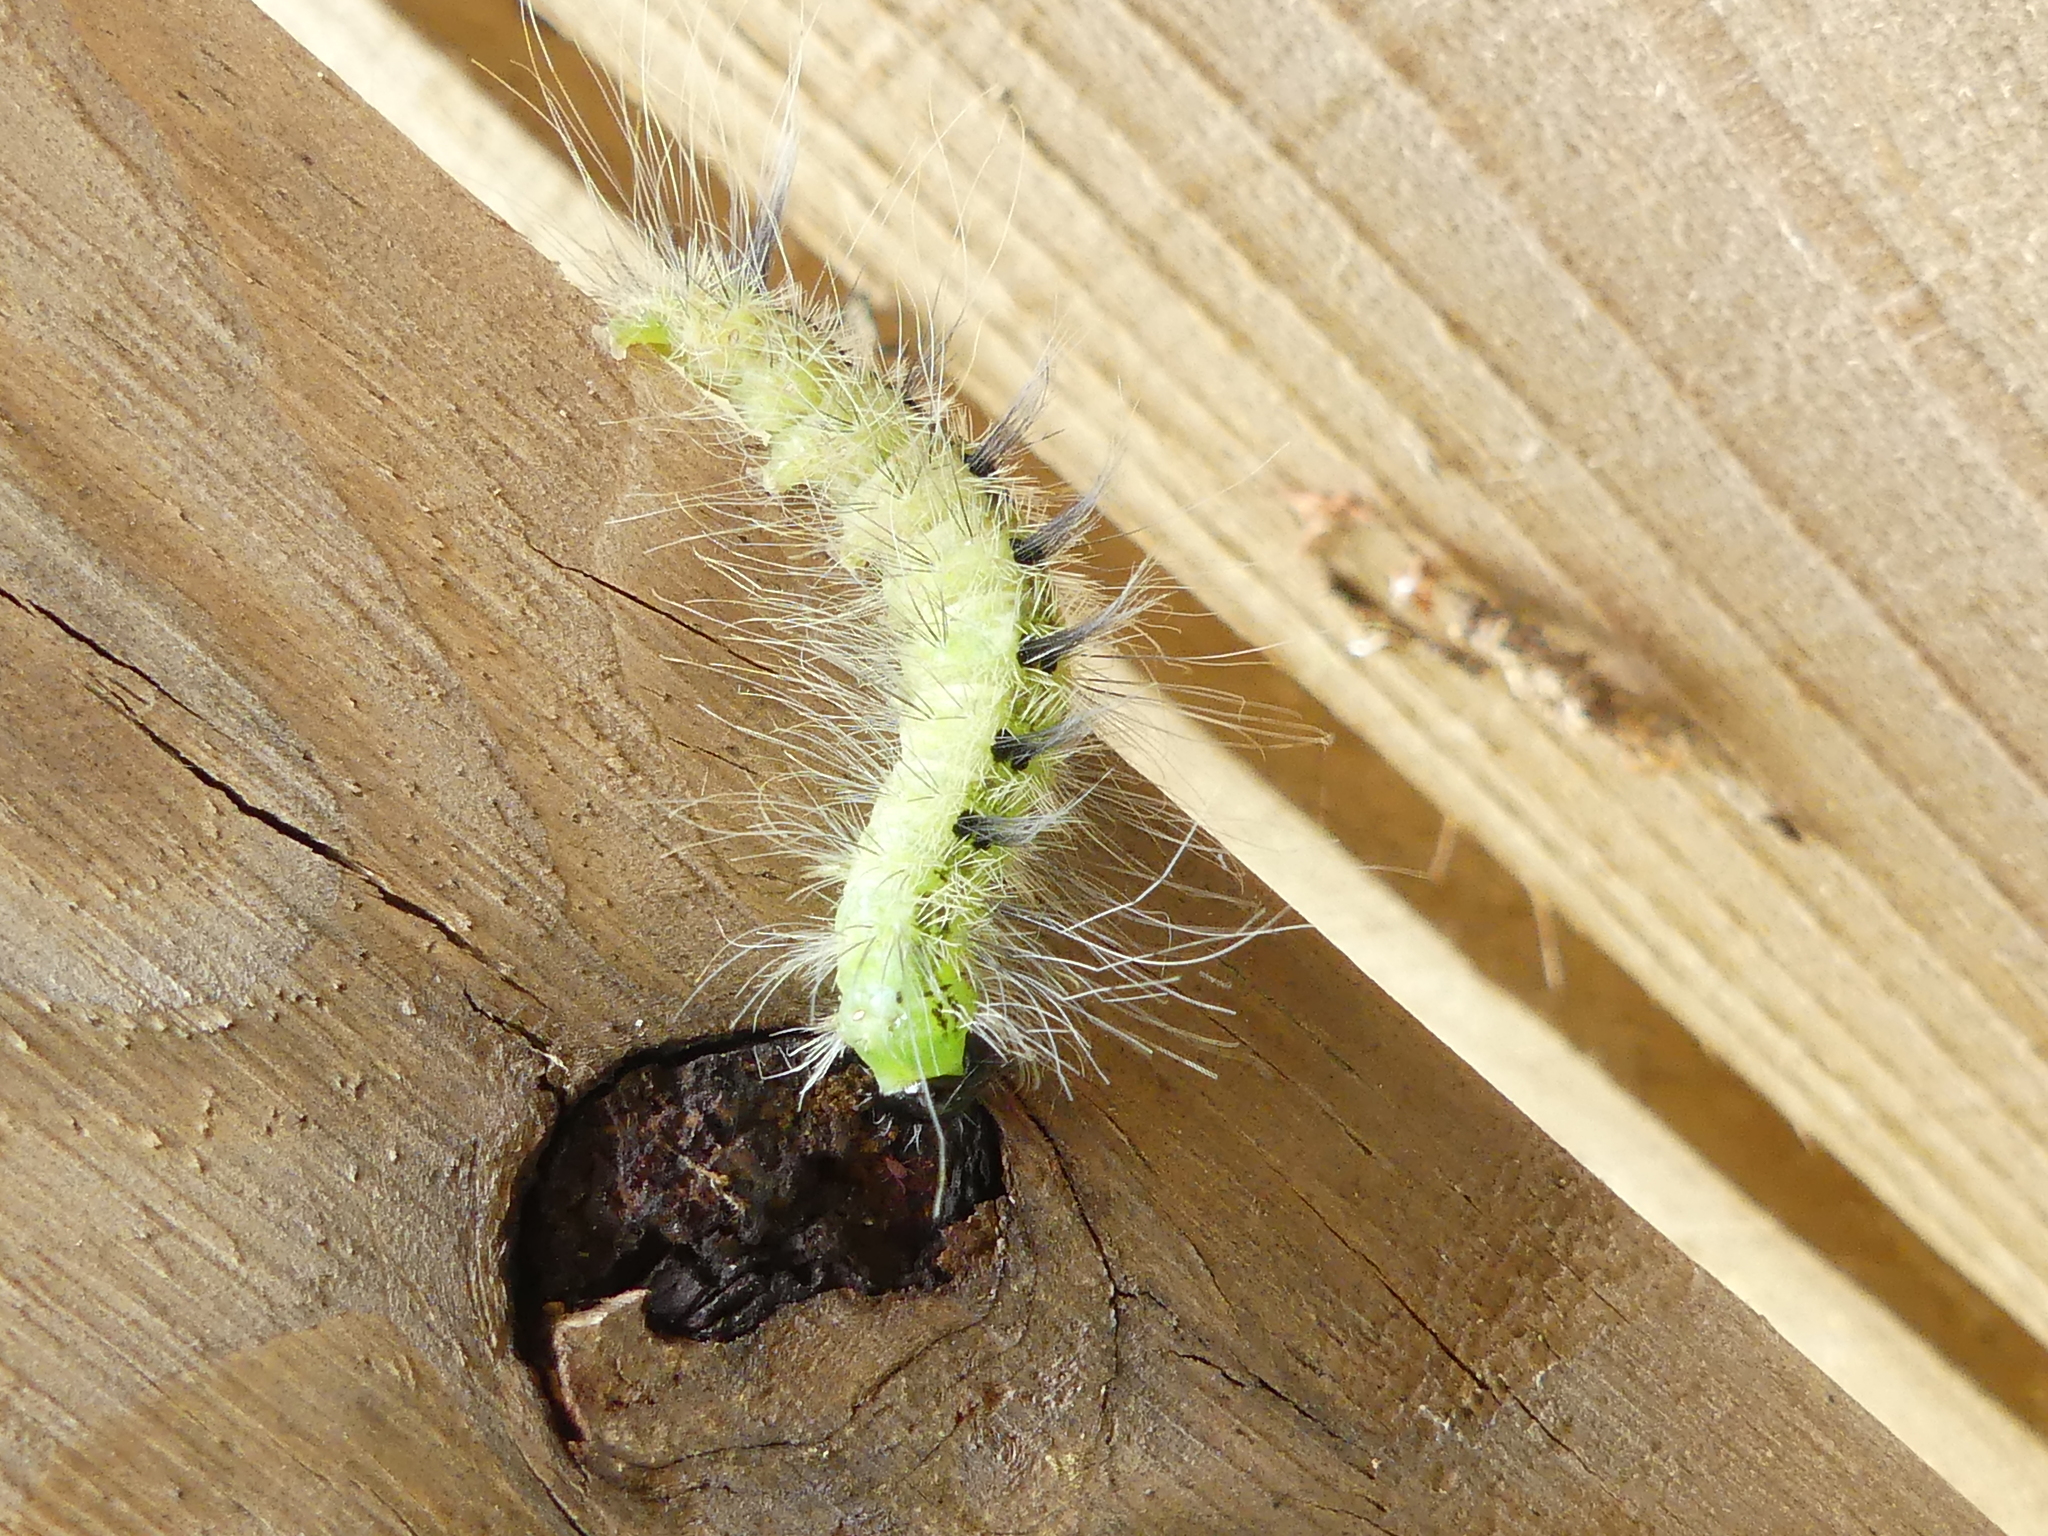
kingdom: Animalia
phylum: Arthropoda
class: Insecta
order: Lepidoptera
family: Noctuidae
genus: Acronicta
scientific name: Acronicta rubricoma
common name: Hackberry dagger
